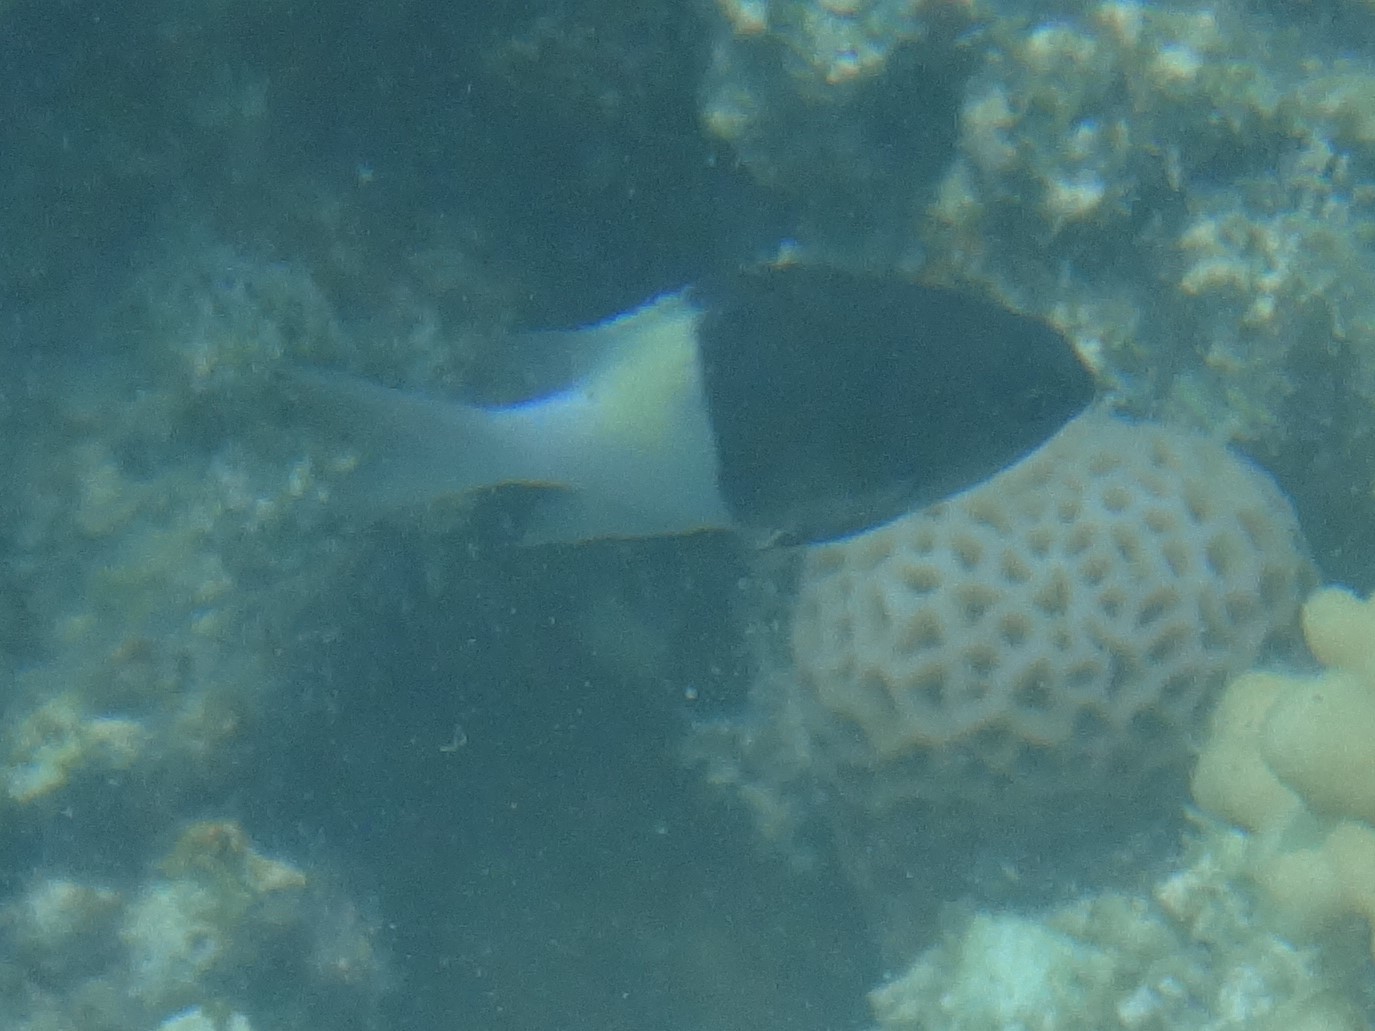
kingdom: Animalia
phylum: Chordata
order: Perciformes
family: Pomacentridae
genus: Chromis
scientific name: Chromis dimidiata
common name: Half-and-half chromis
